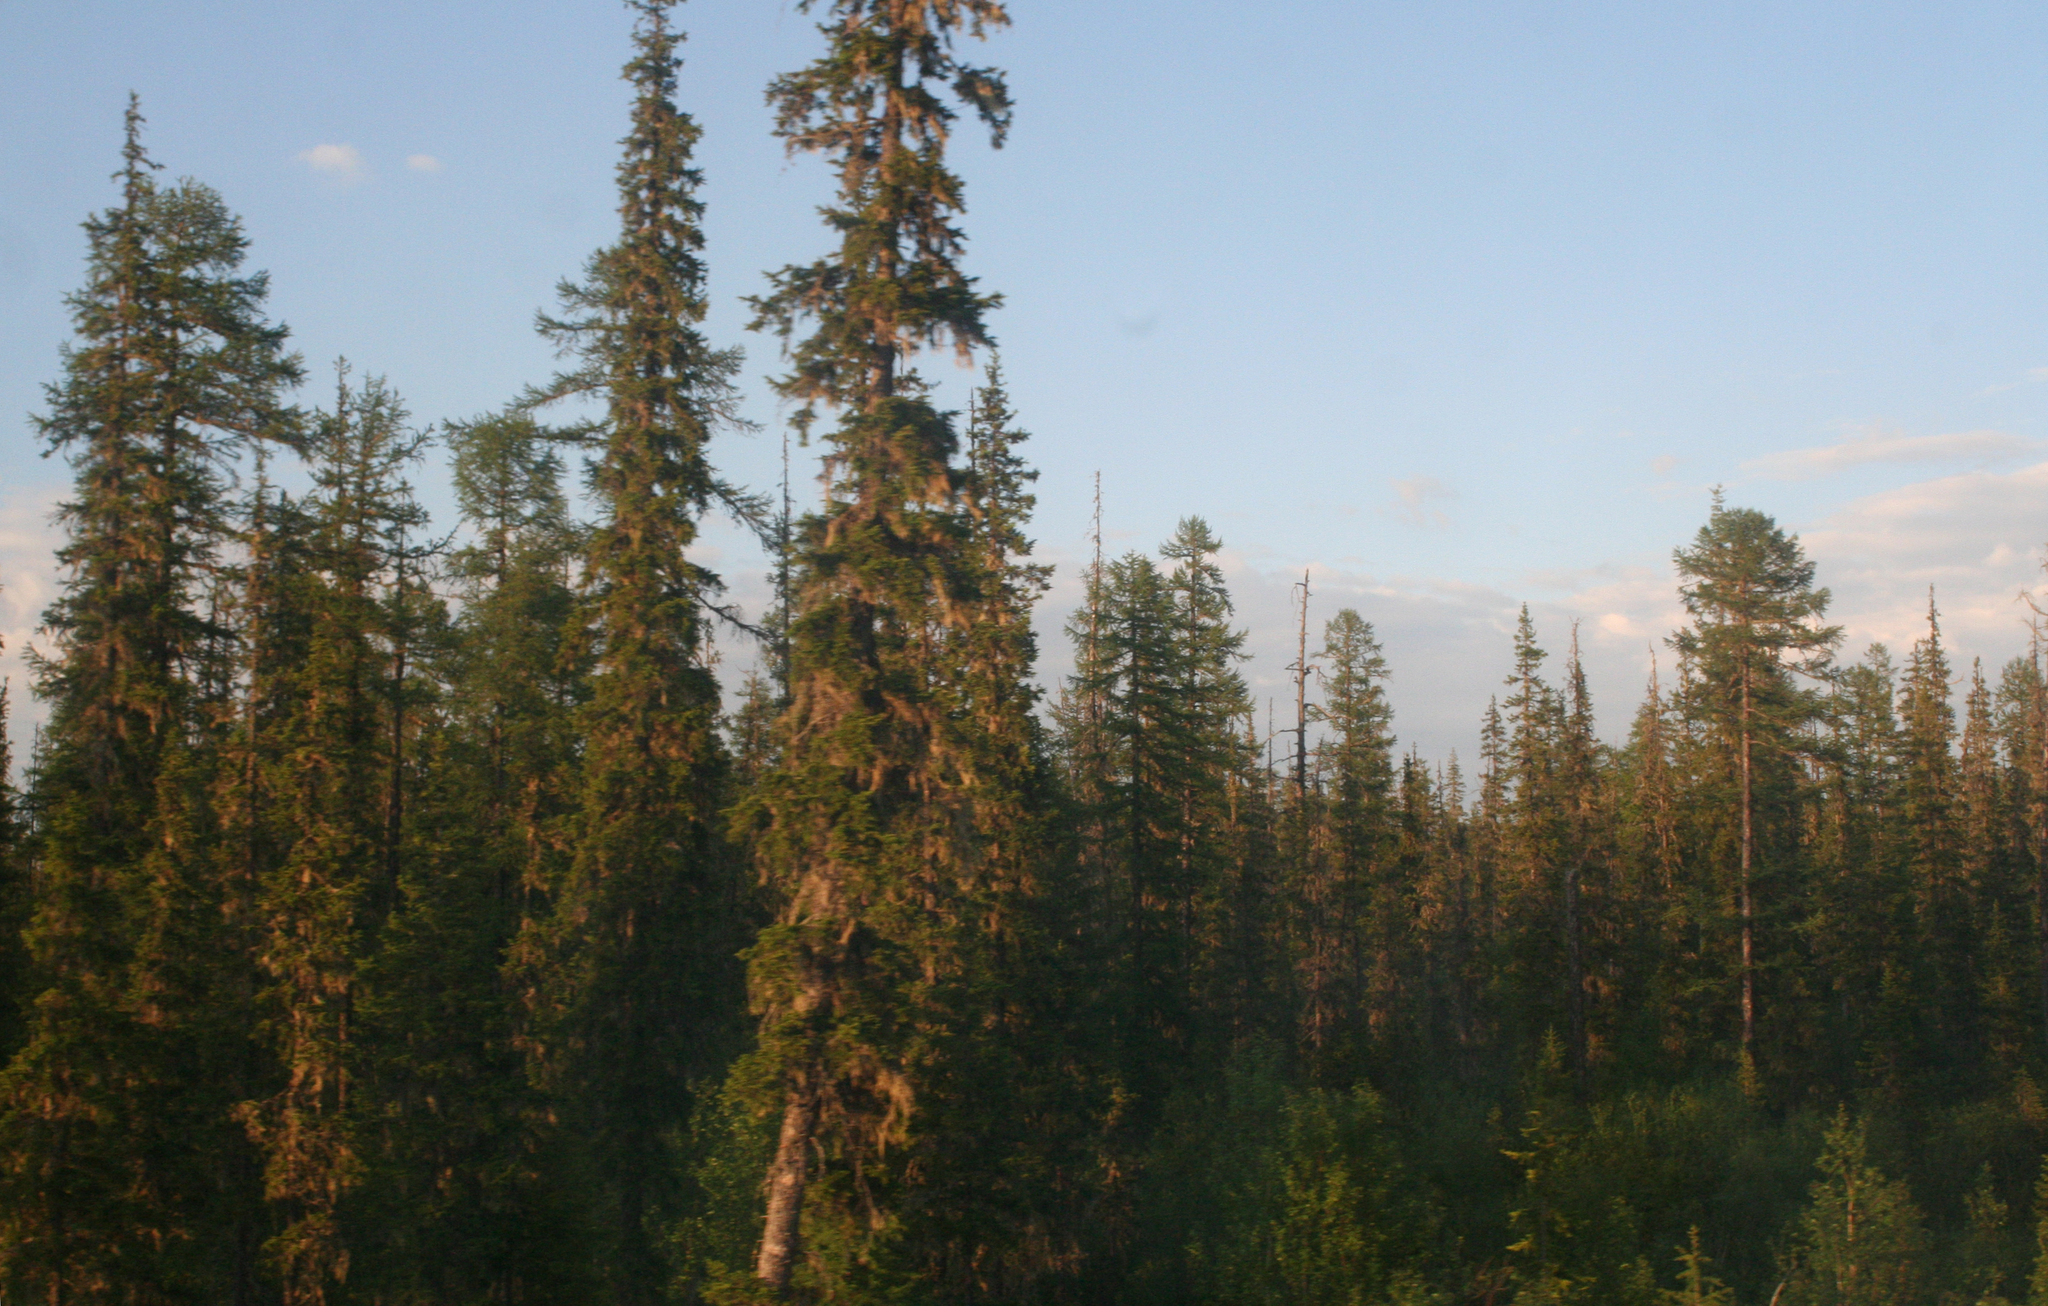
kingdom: Plantae
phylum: Tracheophyta
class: Pinopsida
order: Pinales
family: Pinaceae
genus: Picea
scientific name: Picea obovata
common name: Siberian spruce
